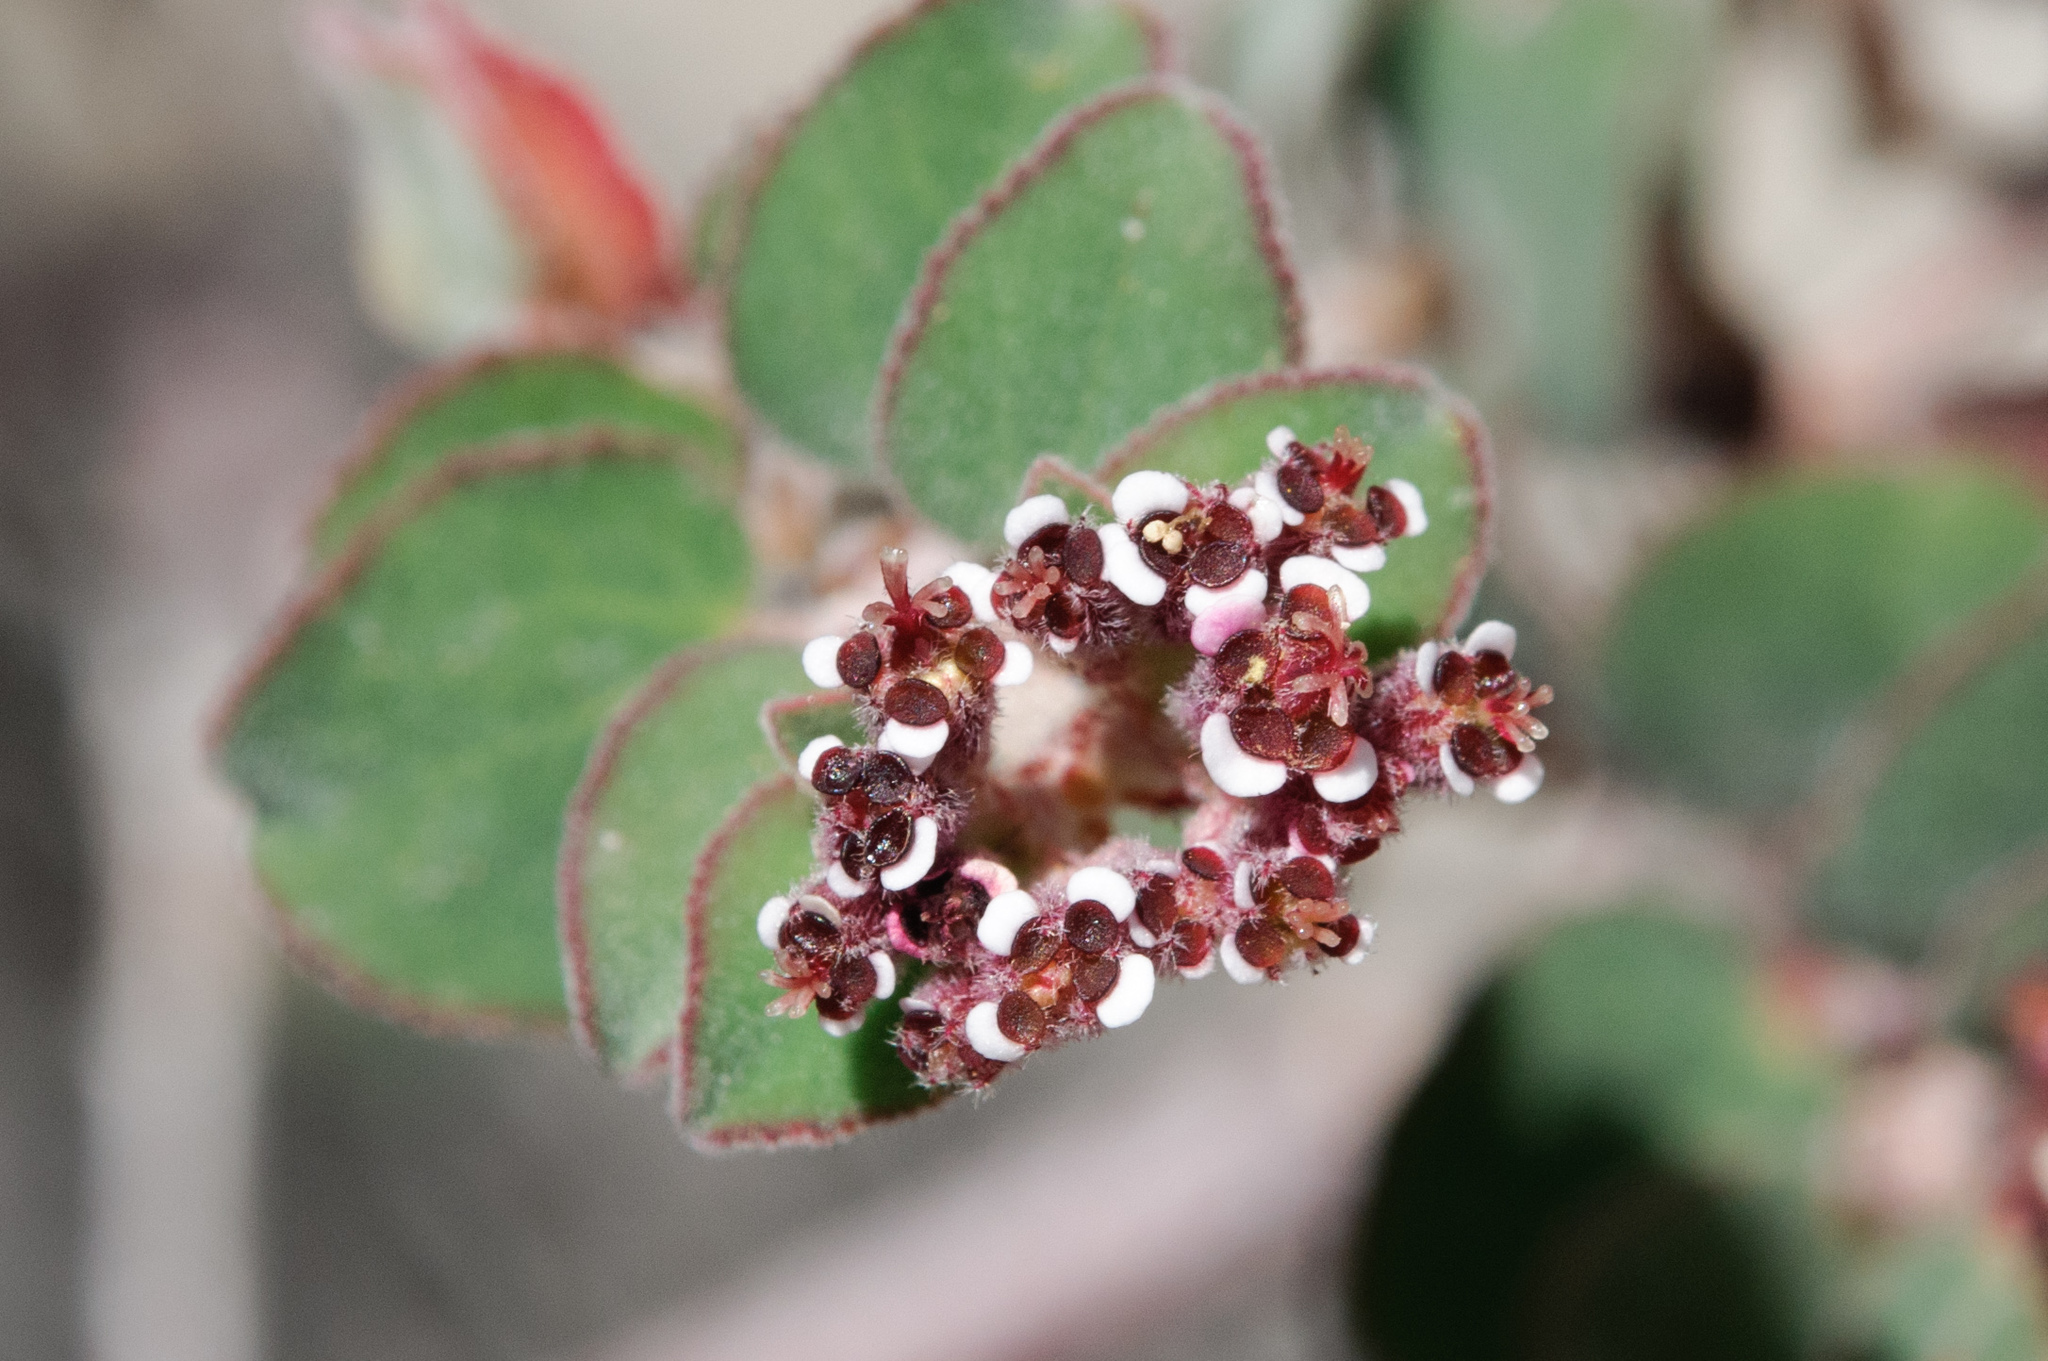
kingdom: Plantae
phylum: Tracheophyta
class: Magnoliopsida
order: Malpighiales
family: Euphorbiaceae
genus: Euphorbia
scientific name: Euphorbia tomentulosa
